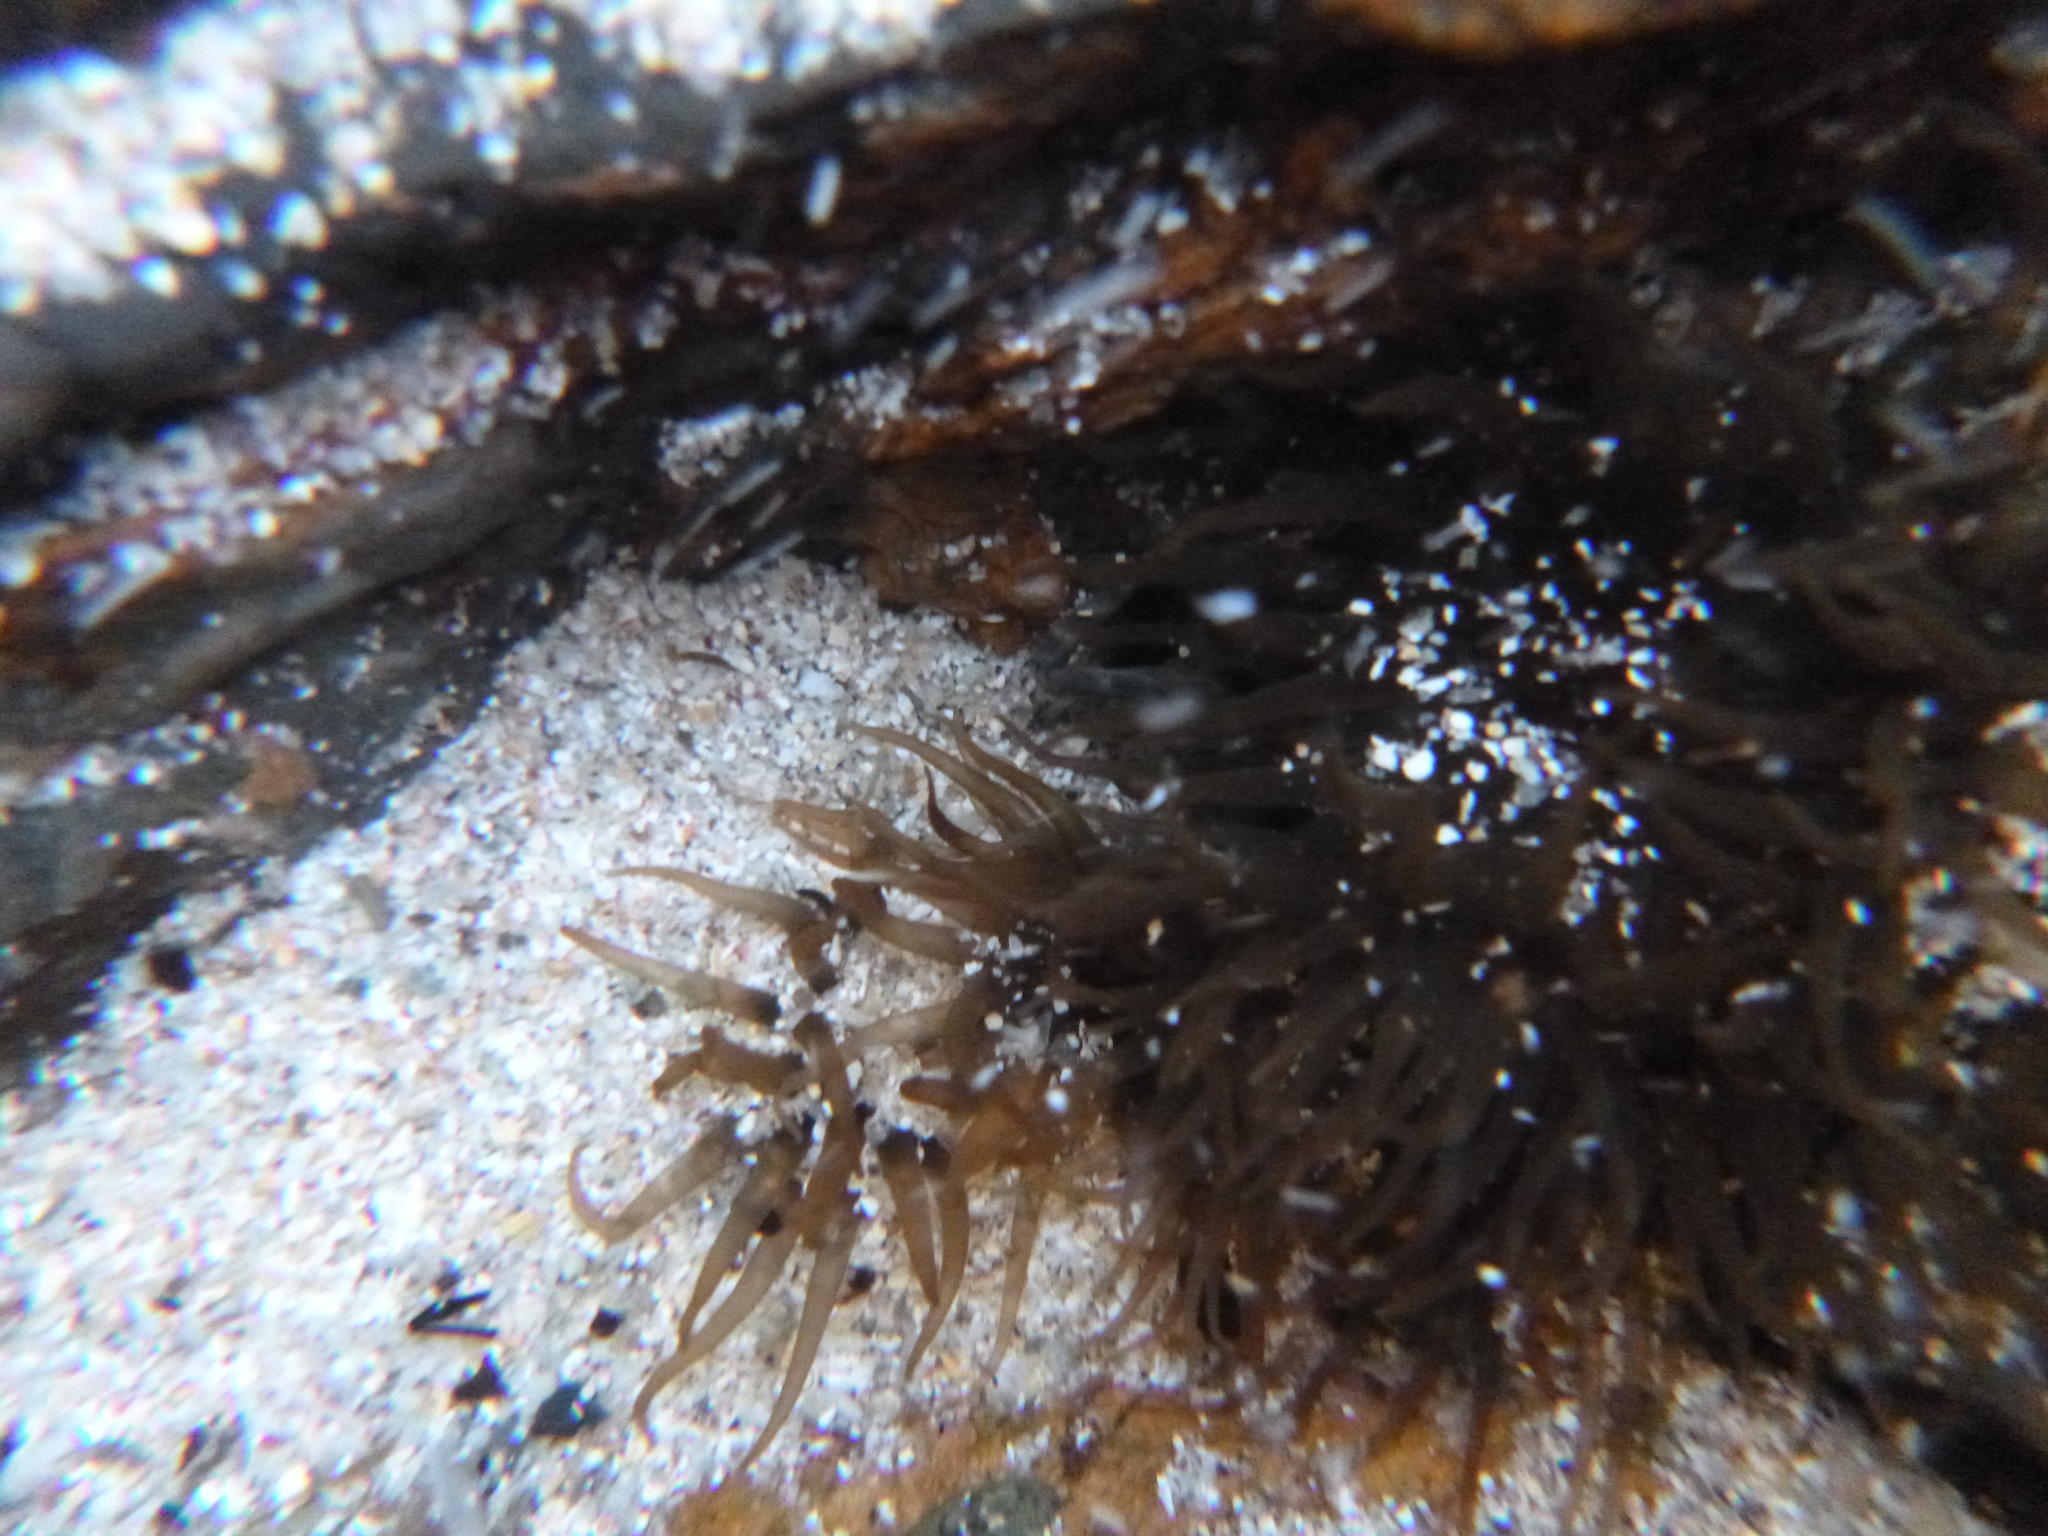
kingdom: Animalia
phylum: Cnidaria
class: Anthozoa
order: Actiniaria
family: Actiniidae
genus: Isactinia
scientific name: Isactinia olivacea
